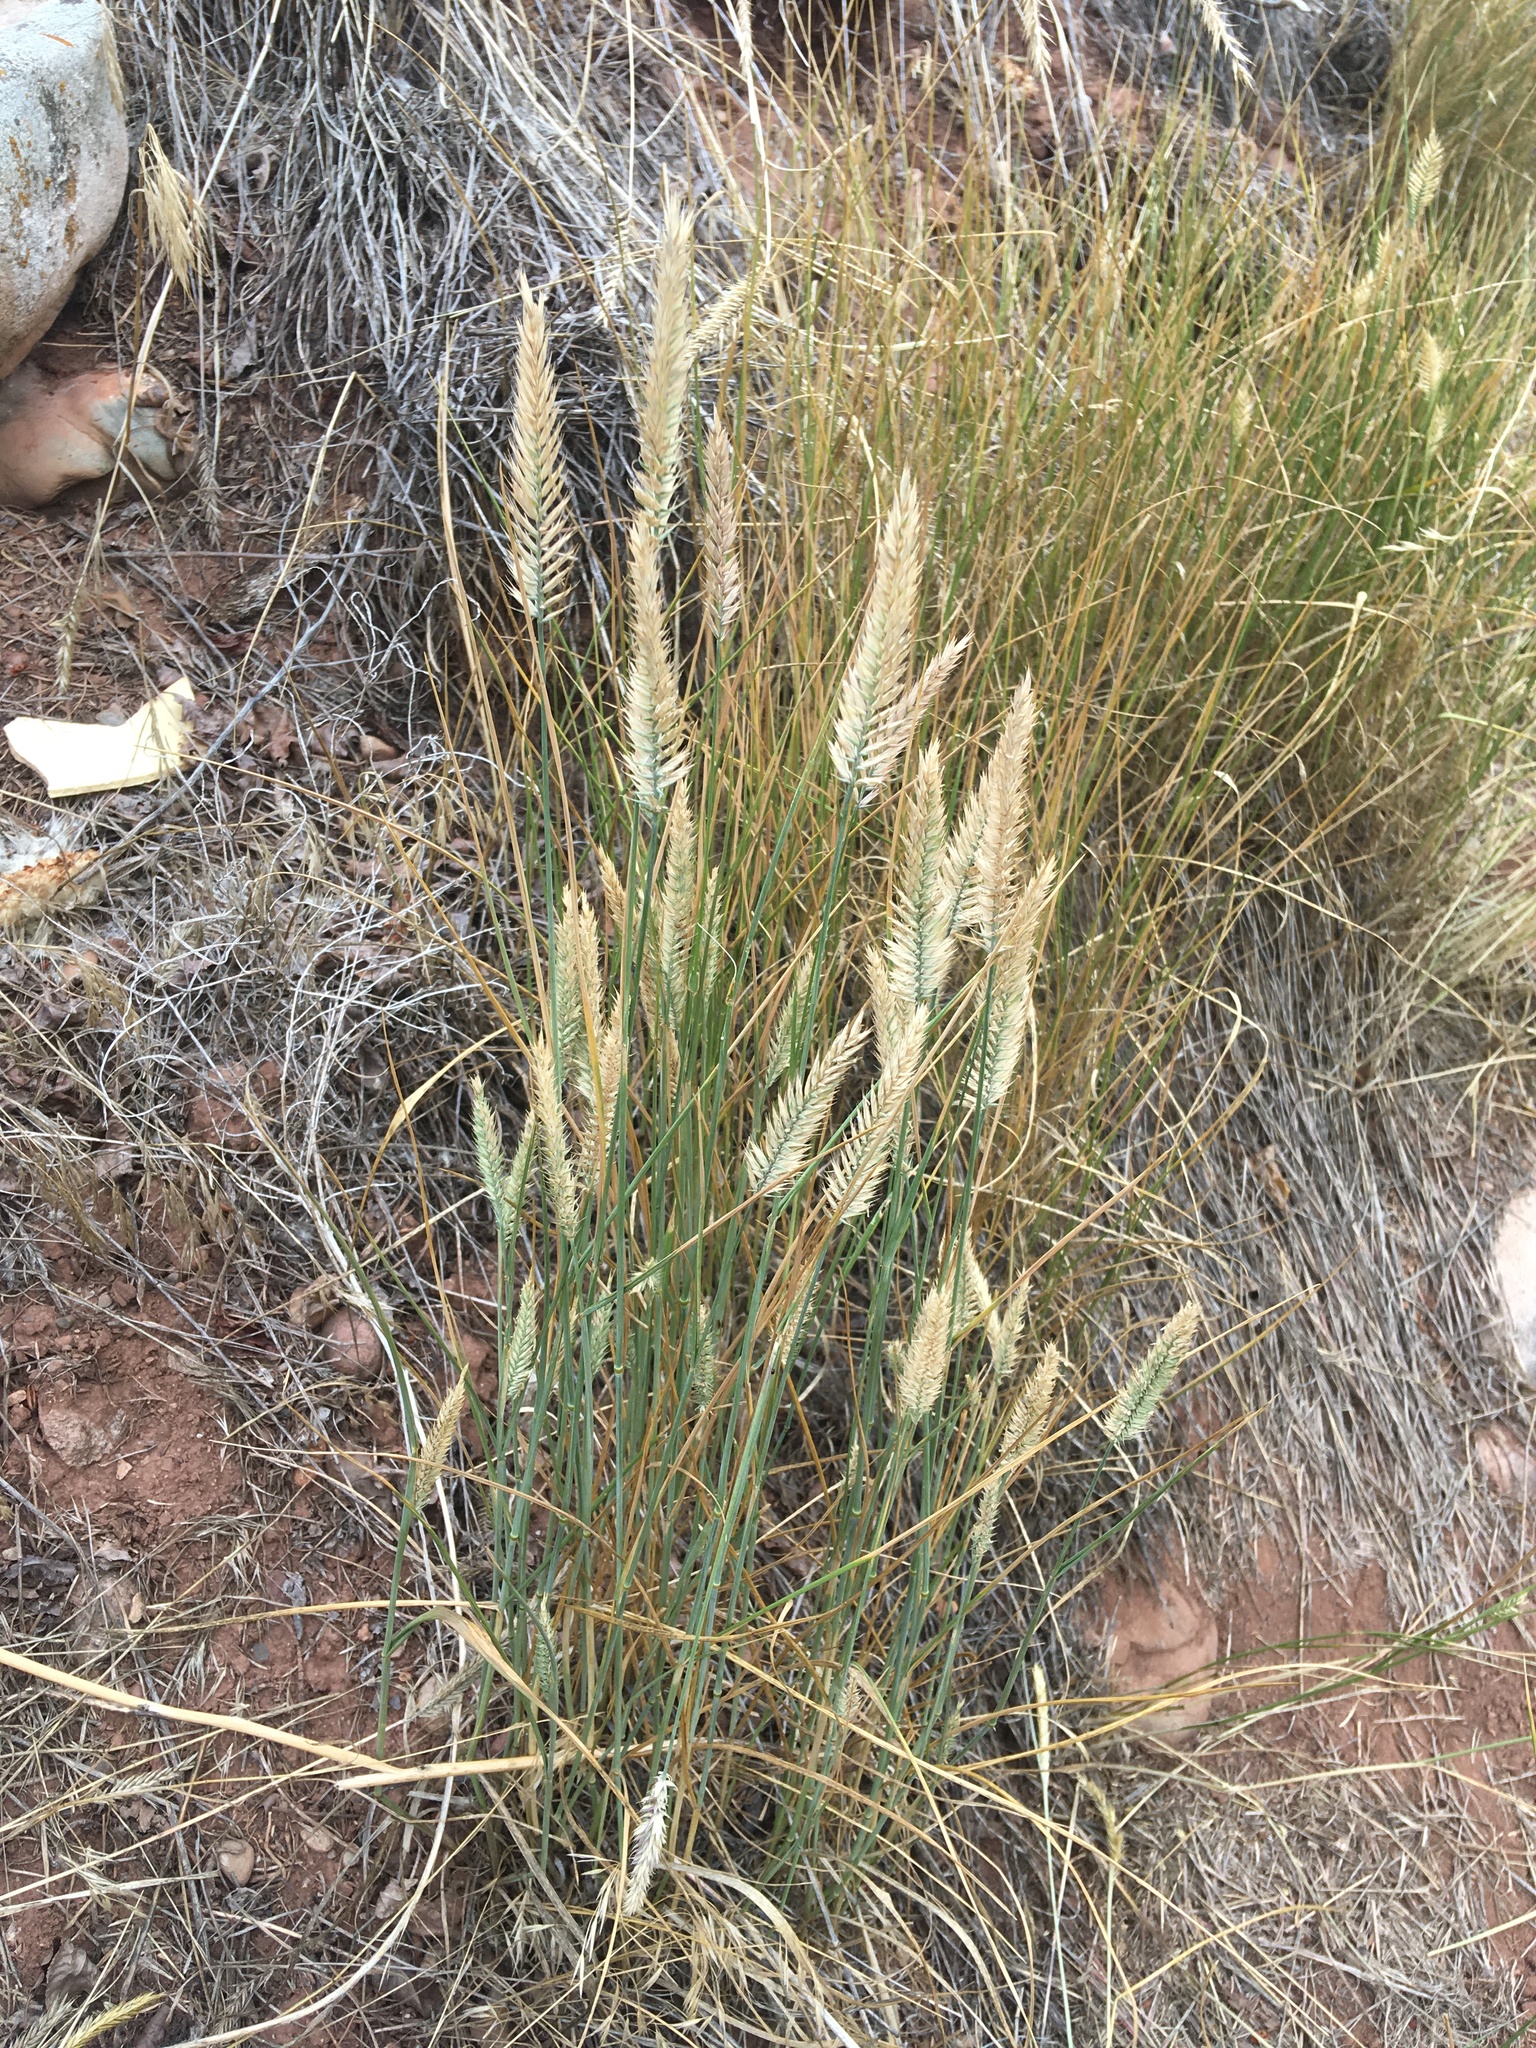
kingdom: Plantae
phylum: Tracheophyta
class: Liliopsida
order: Poales
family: Poaceae
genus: Agropyron
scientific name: Agropyron cristatum
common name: Crested wheatgrass
